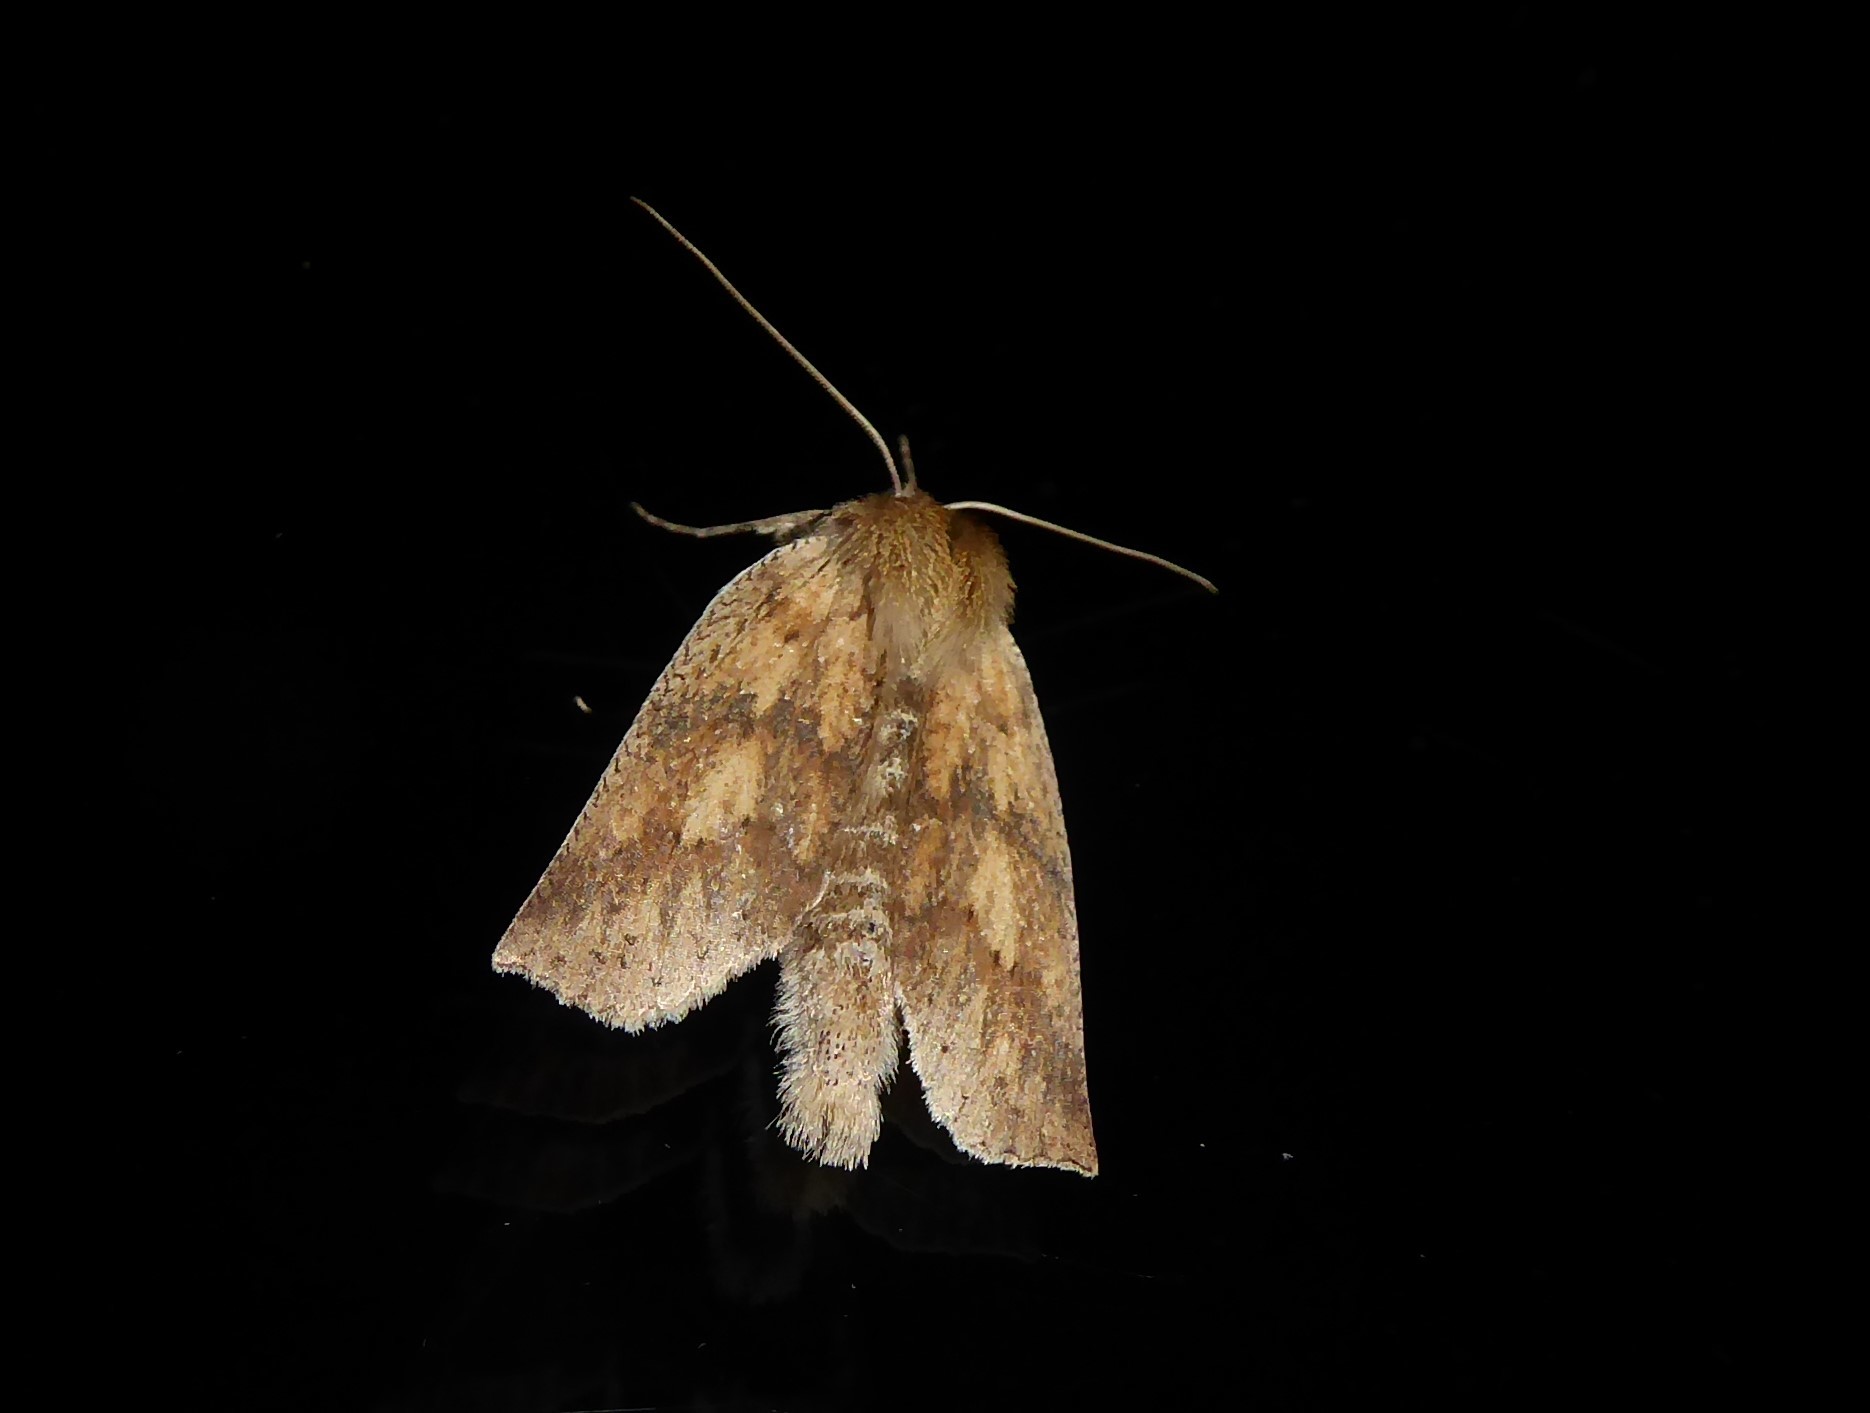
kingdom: Animalia
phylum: Arthropoda
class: Insecta
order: Lepidoptera
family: Geometridae
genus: Declana
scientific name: Declana leptomera
